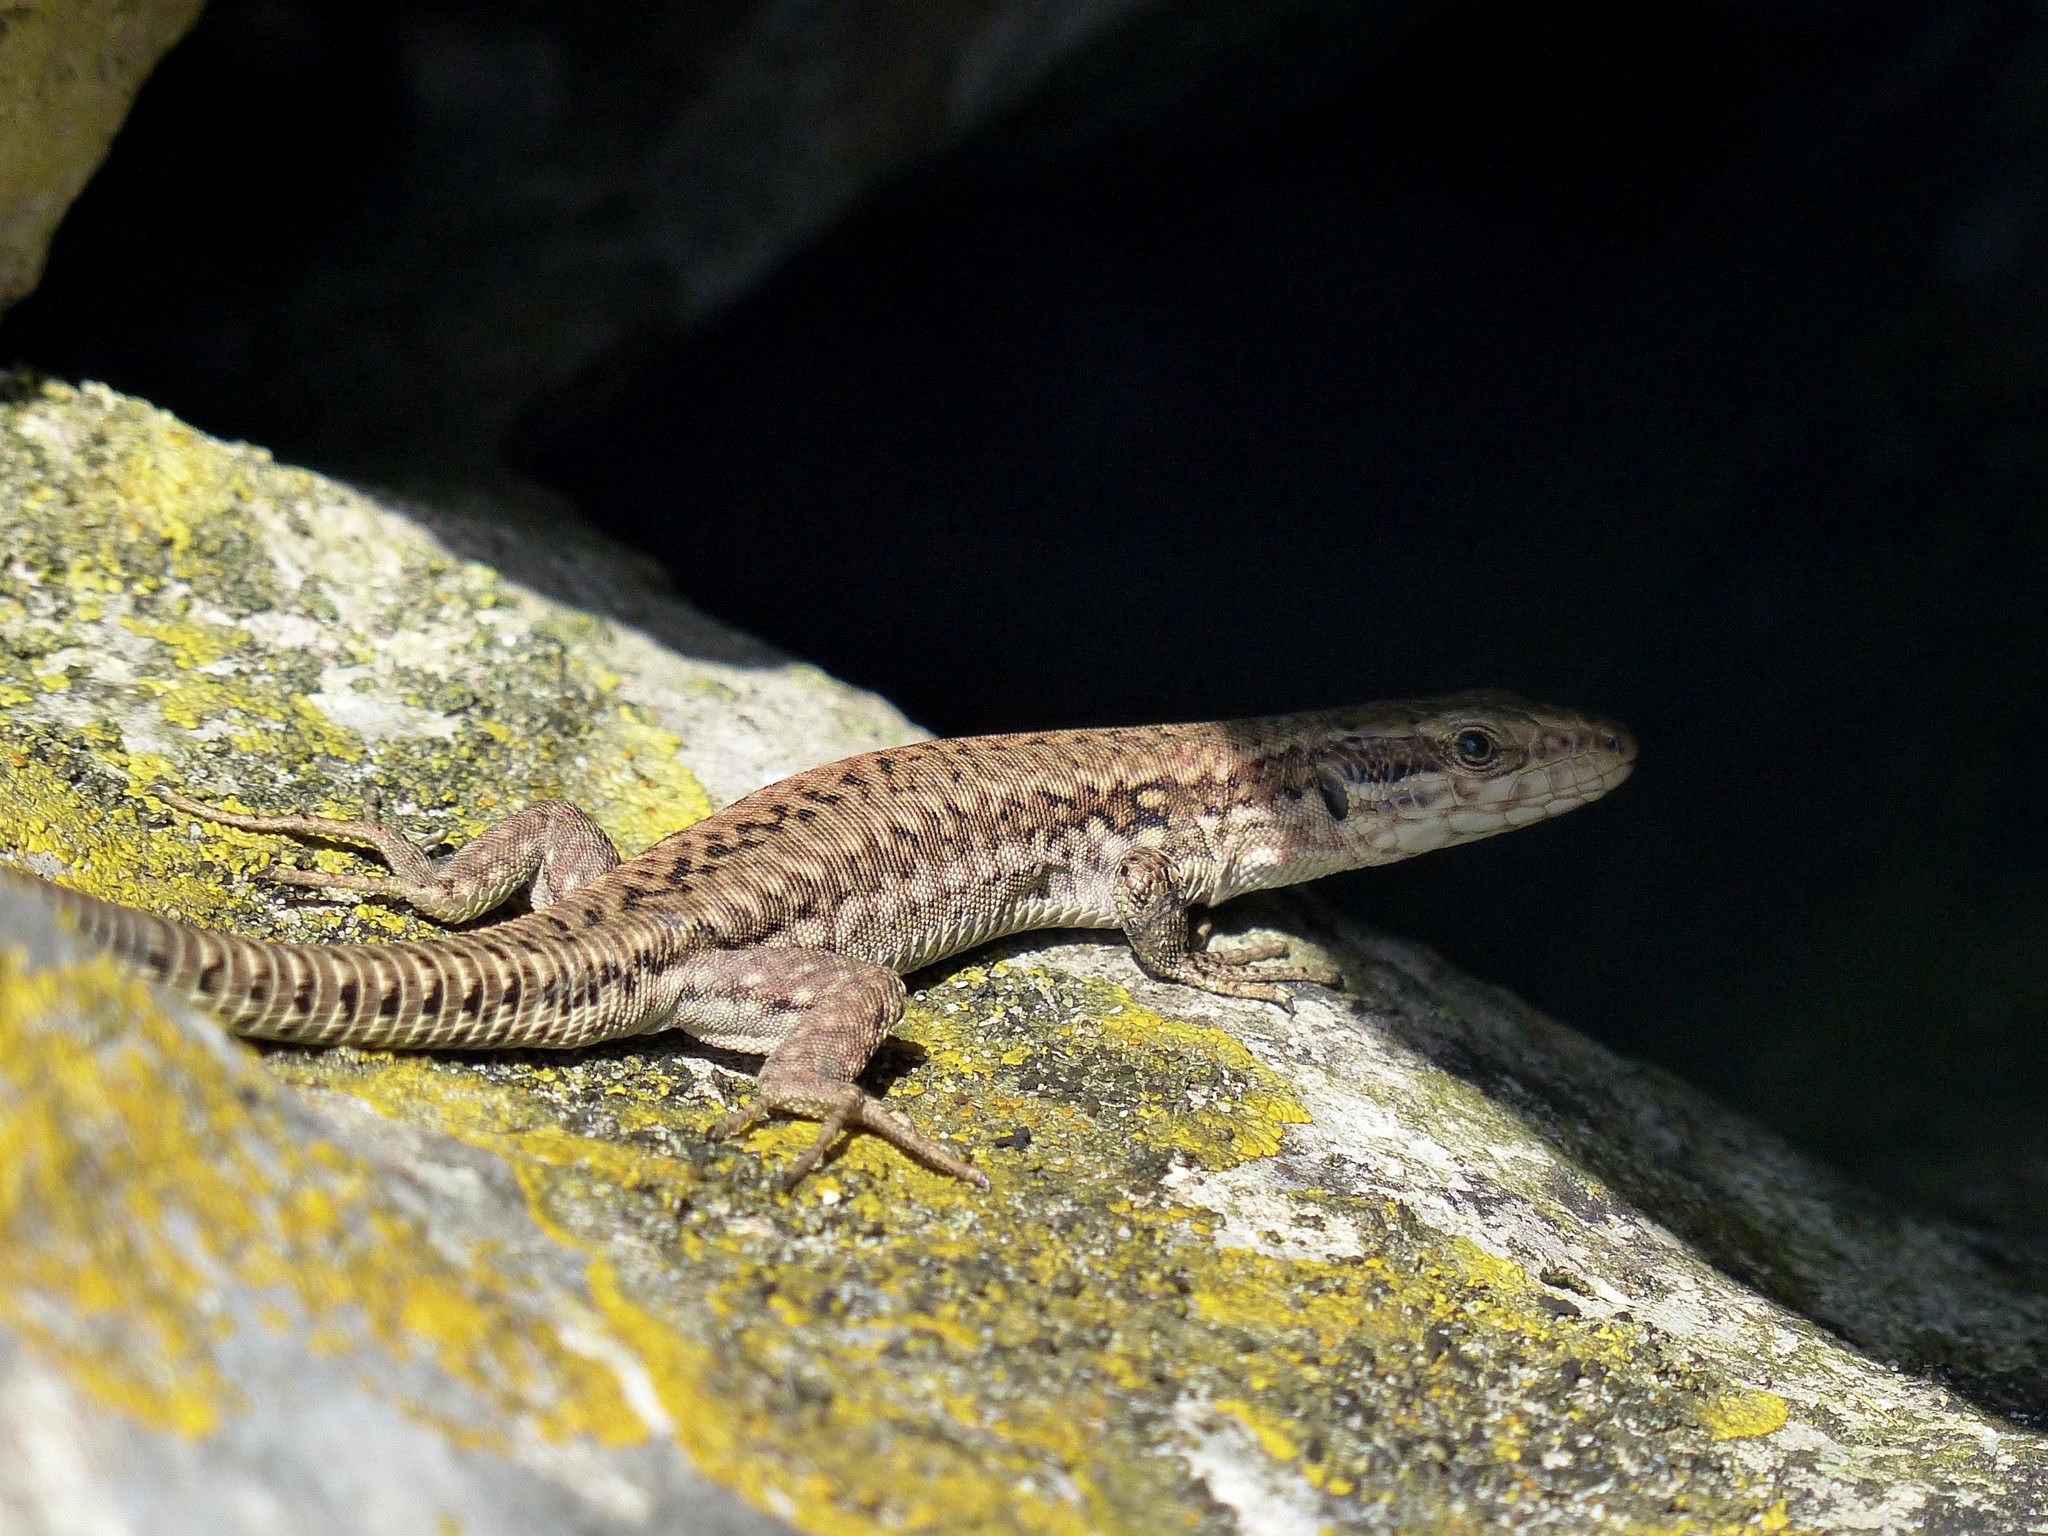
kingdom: Animalia
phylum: Chordata
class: Squamata
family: Lacertidae
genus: Podarcis
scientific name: Podarcis muralis
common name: Common wall lizard
